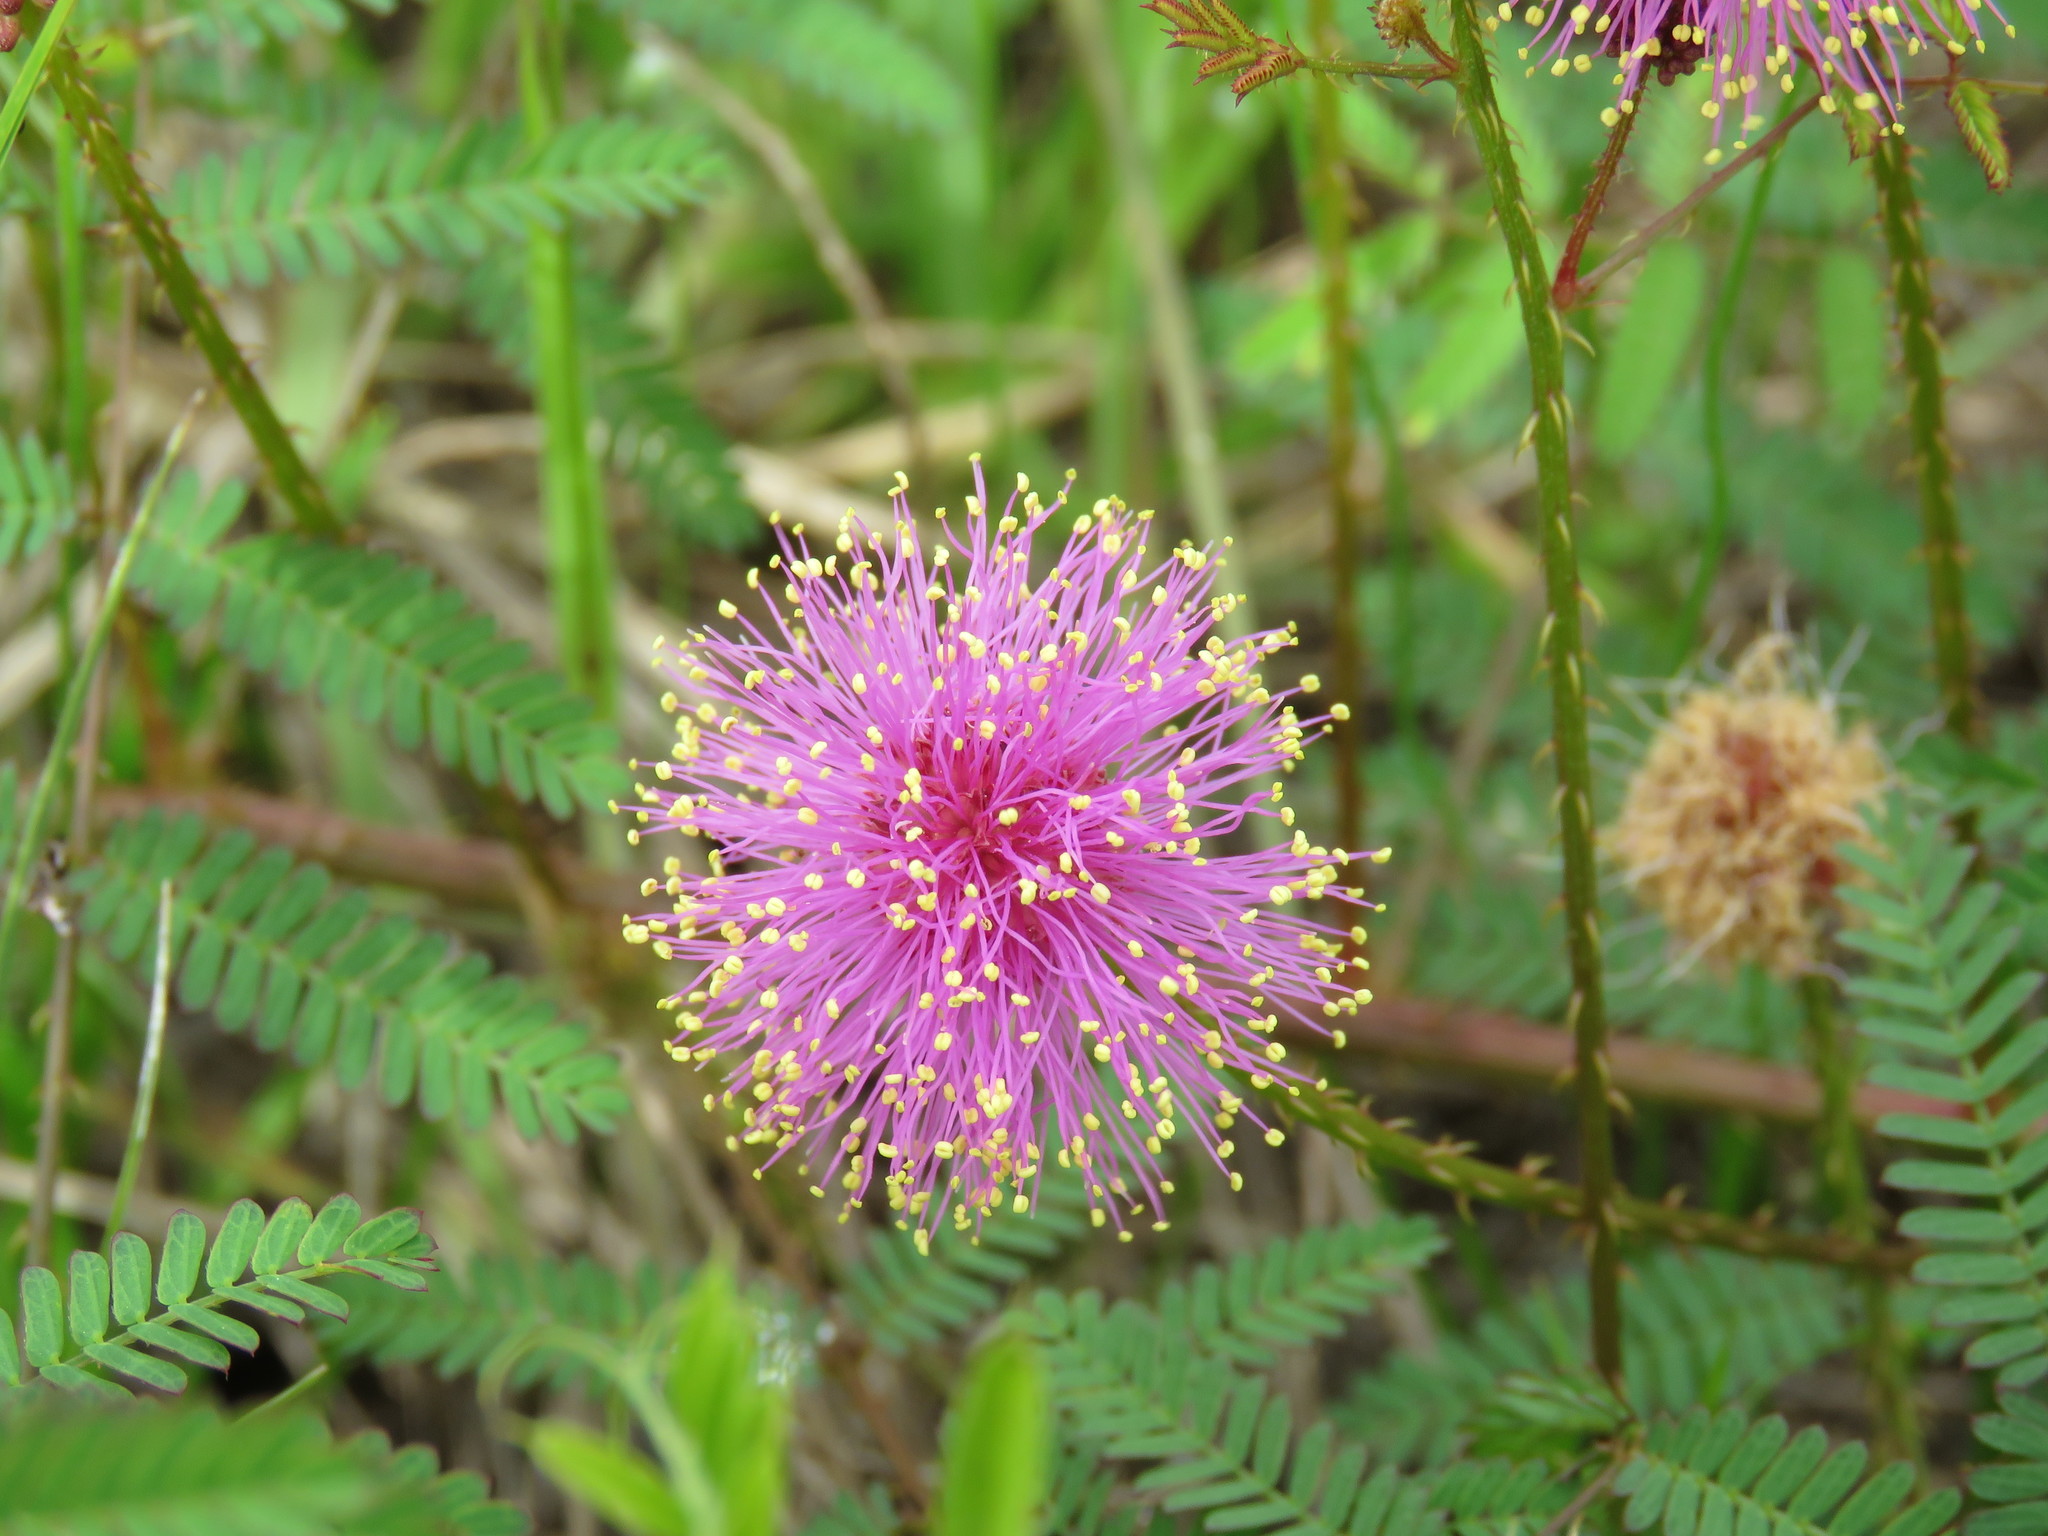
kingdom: Plantae
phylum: Tracheophyta
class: Magnoliopsida
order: Fabales
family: Fabaceae
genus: Mimosa
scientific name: Mimosa quadrivalvis
